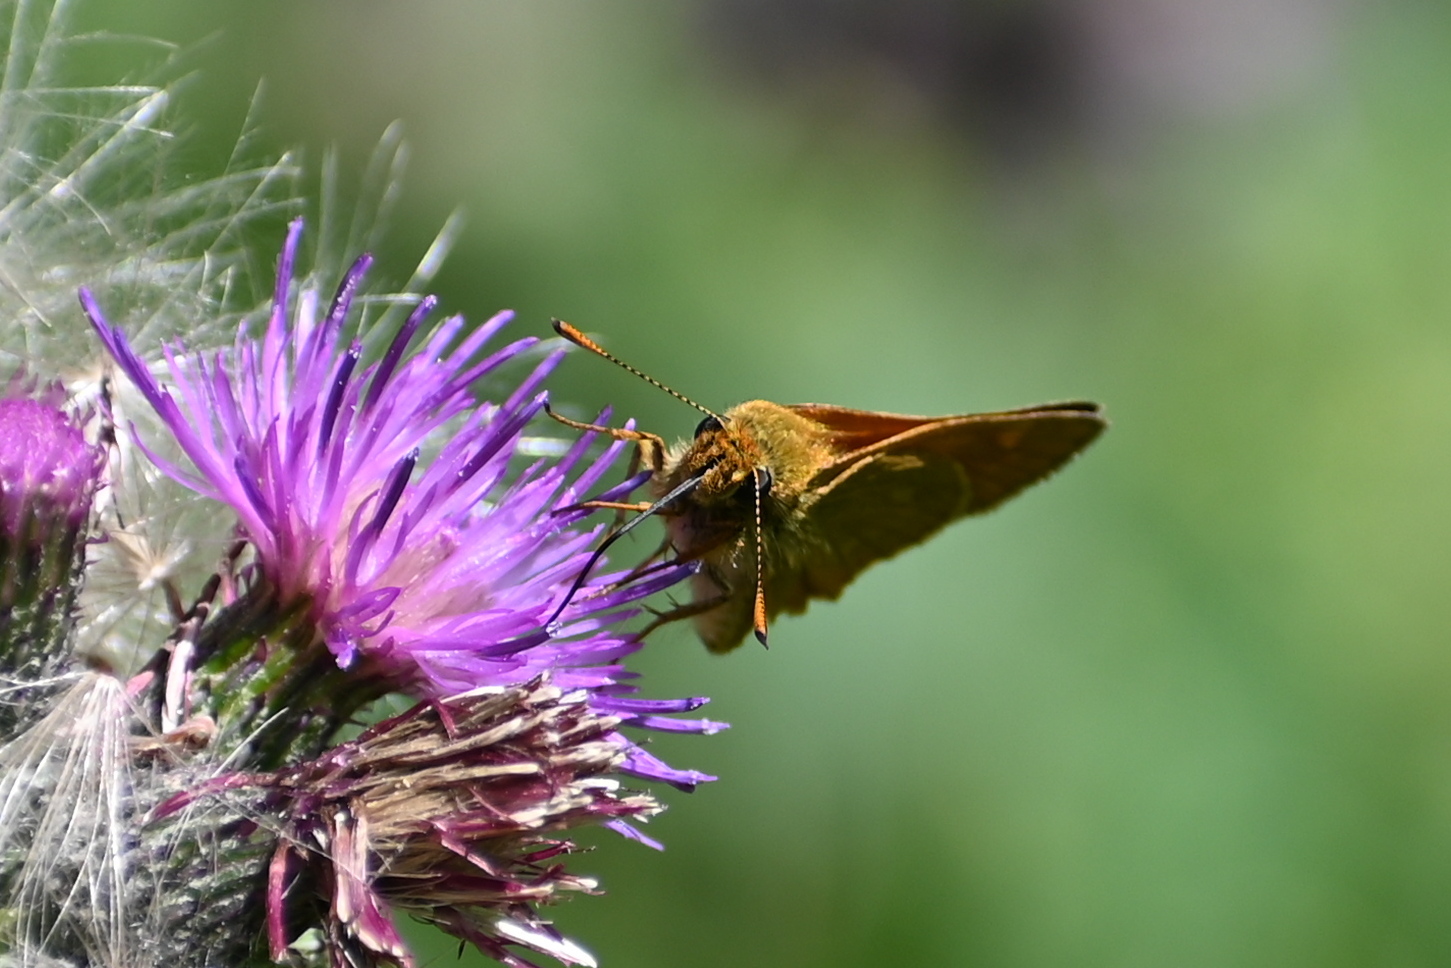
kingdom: Animalia
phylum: Arthropoda
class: Insecta
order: Lepidoptera
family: Hesperiidae
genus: Ochlodes
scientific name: Ochlodes venata
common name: Large skipper
